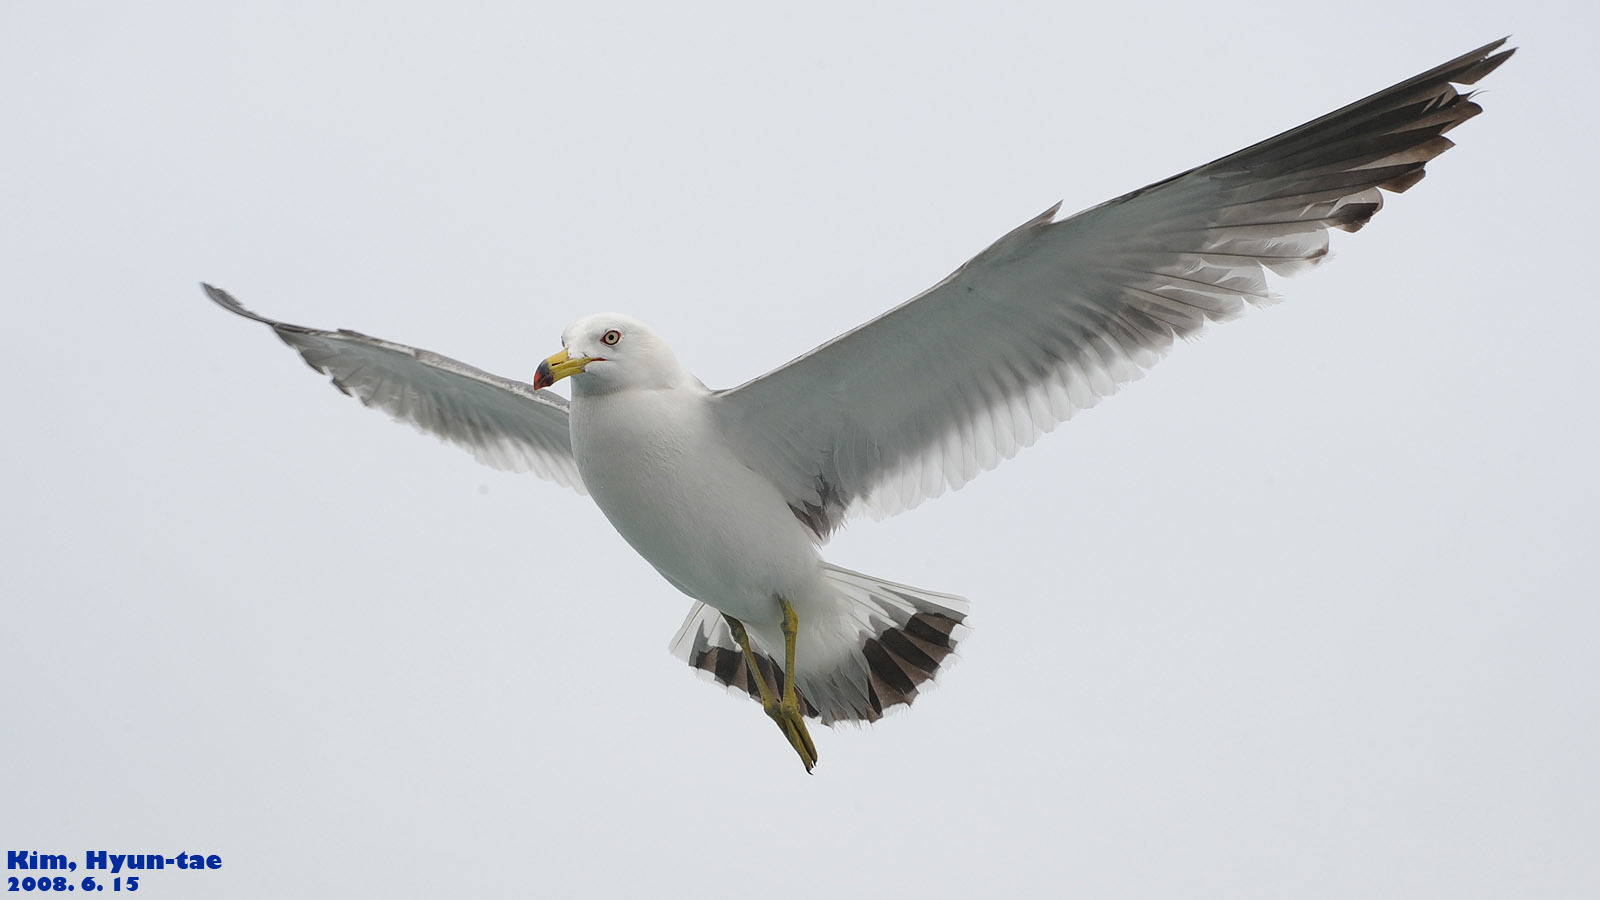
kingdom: Animalia
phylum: Chordata
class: Aves
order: Charadriiformes
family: Laridae
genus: Larus
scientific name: Larus crassirostris
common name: Black-tailed gull
